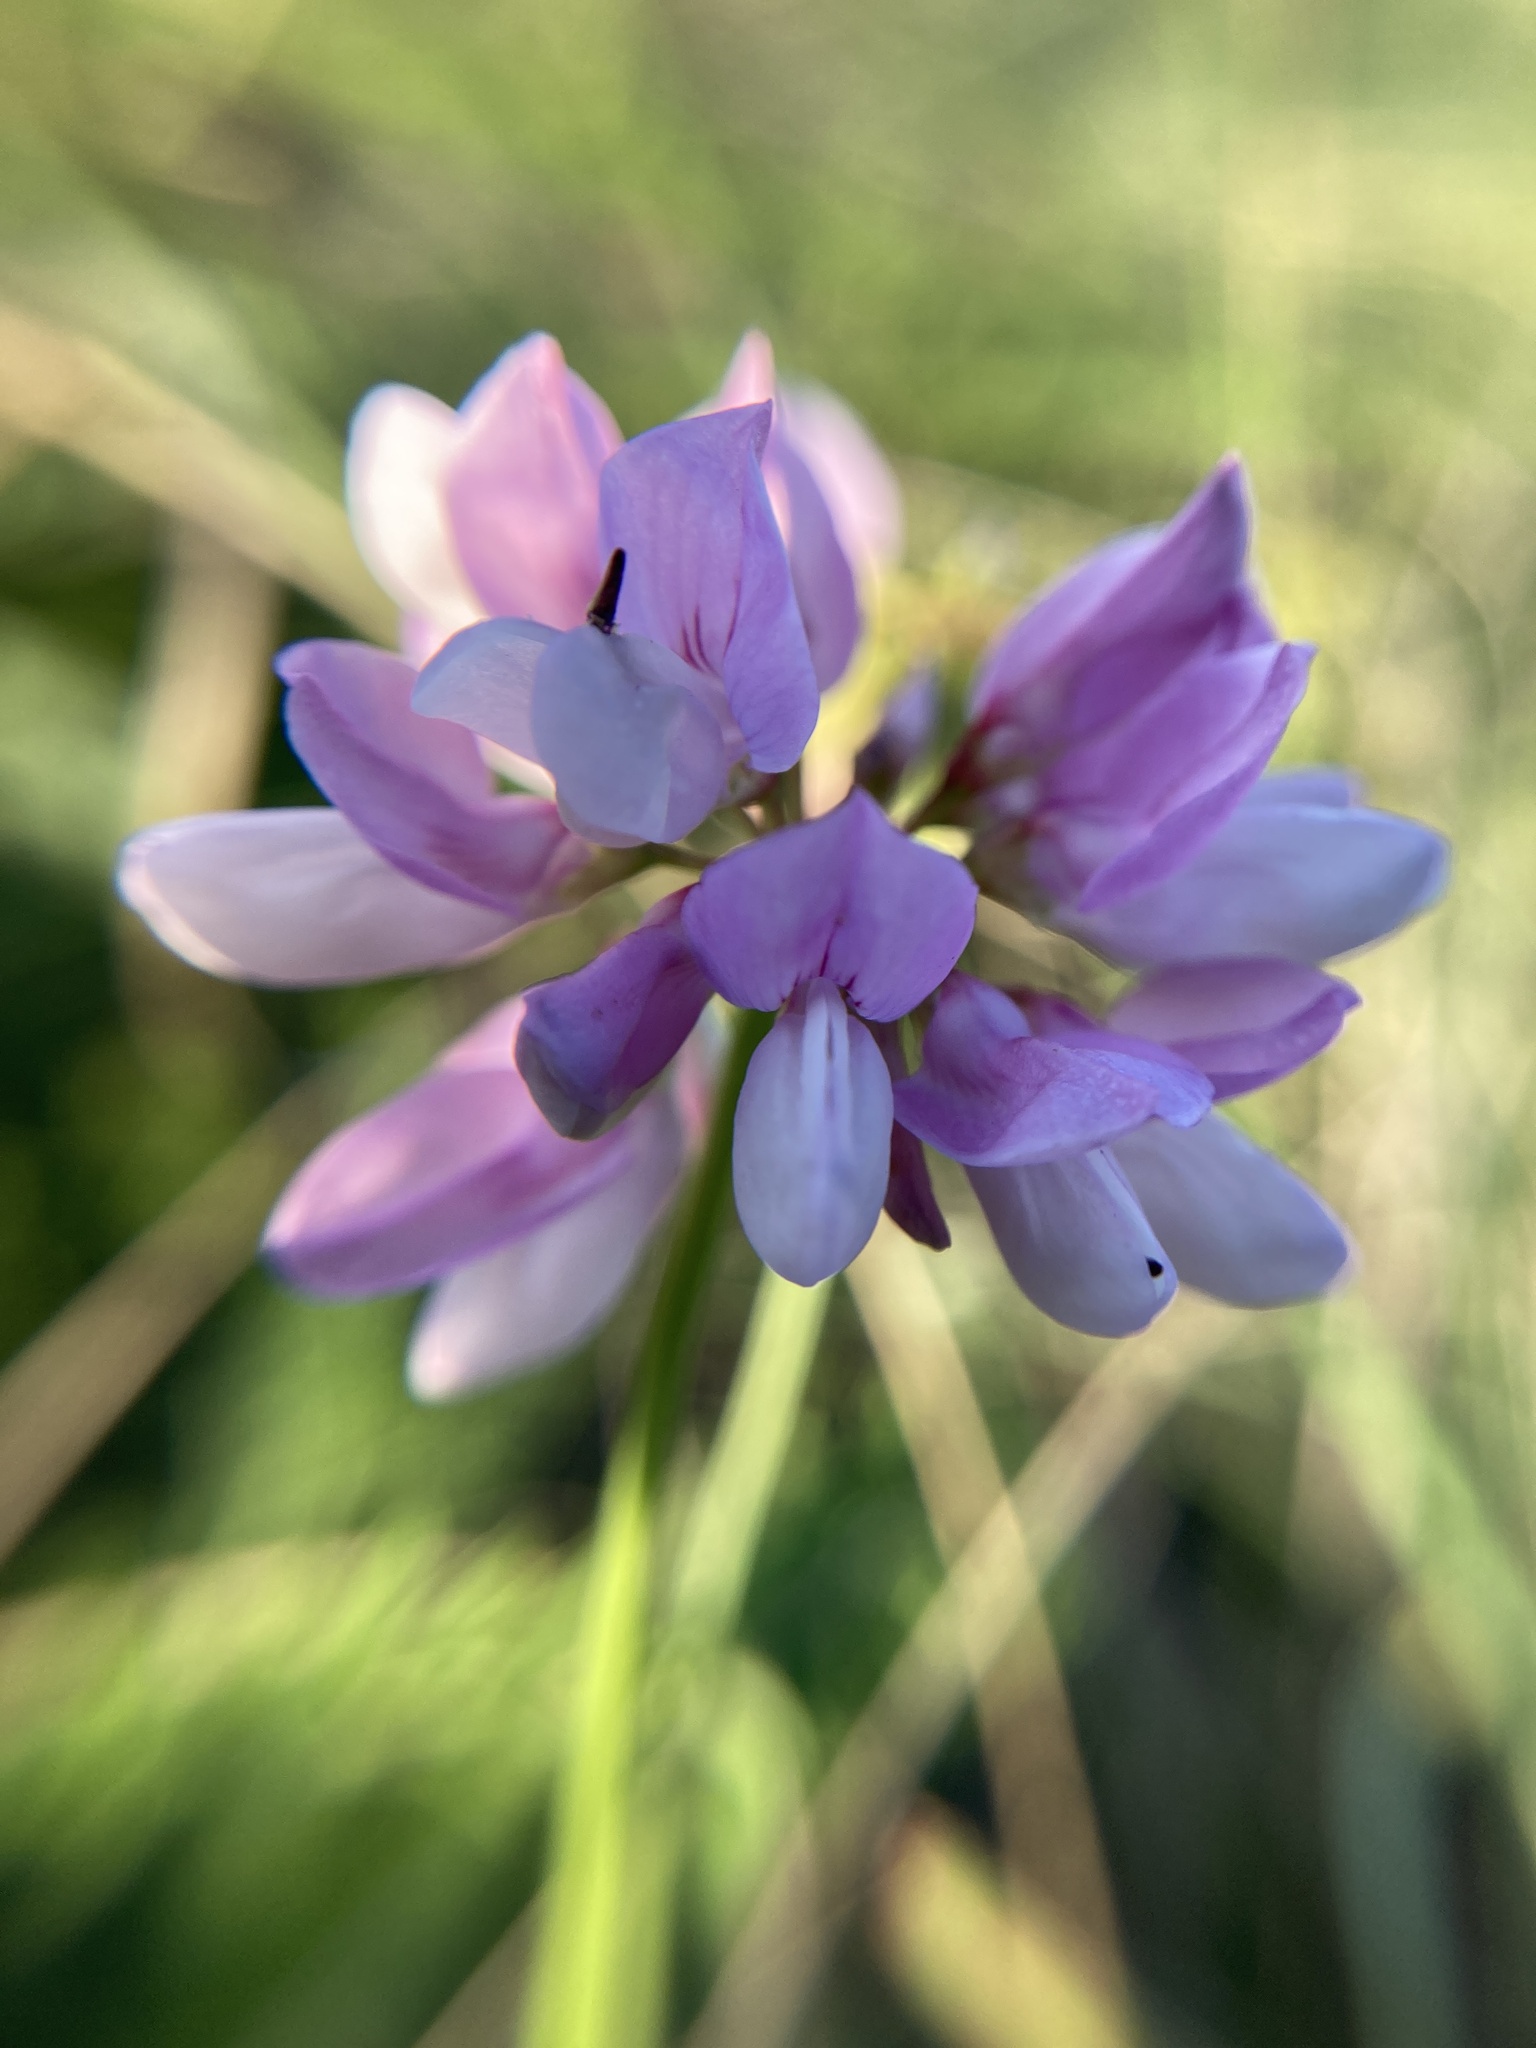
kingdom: Plantae
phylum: Tracheophyta
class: Magnoliopsida
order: Fabales
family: Fabaceae
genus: Coronilla
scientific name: Coronilla varia
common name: Crownvetch
